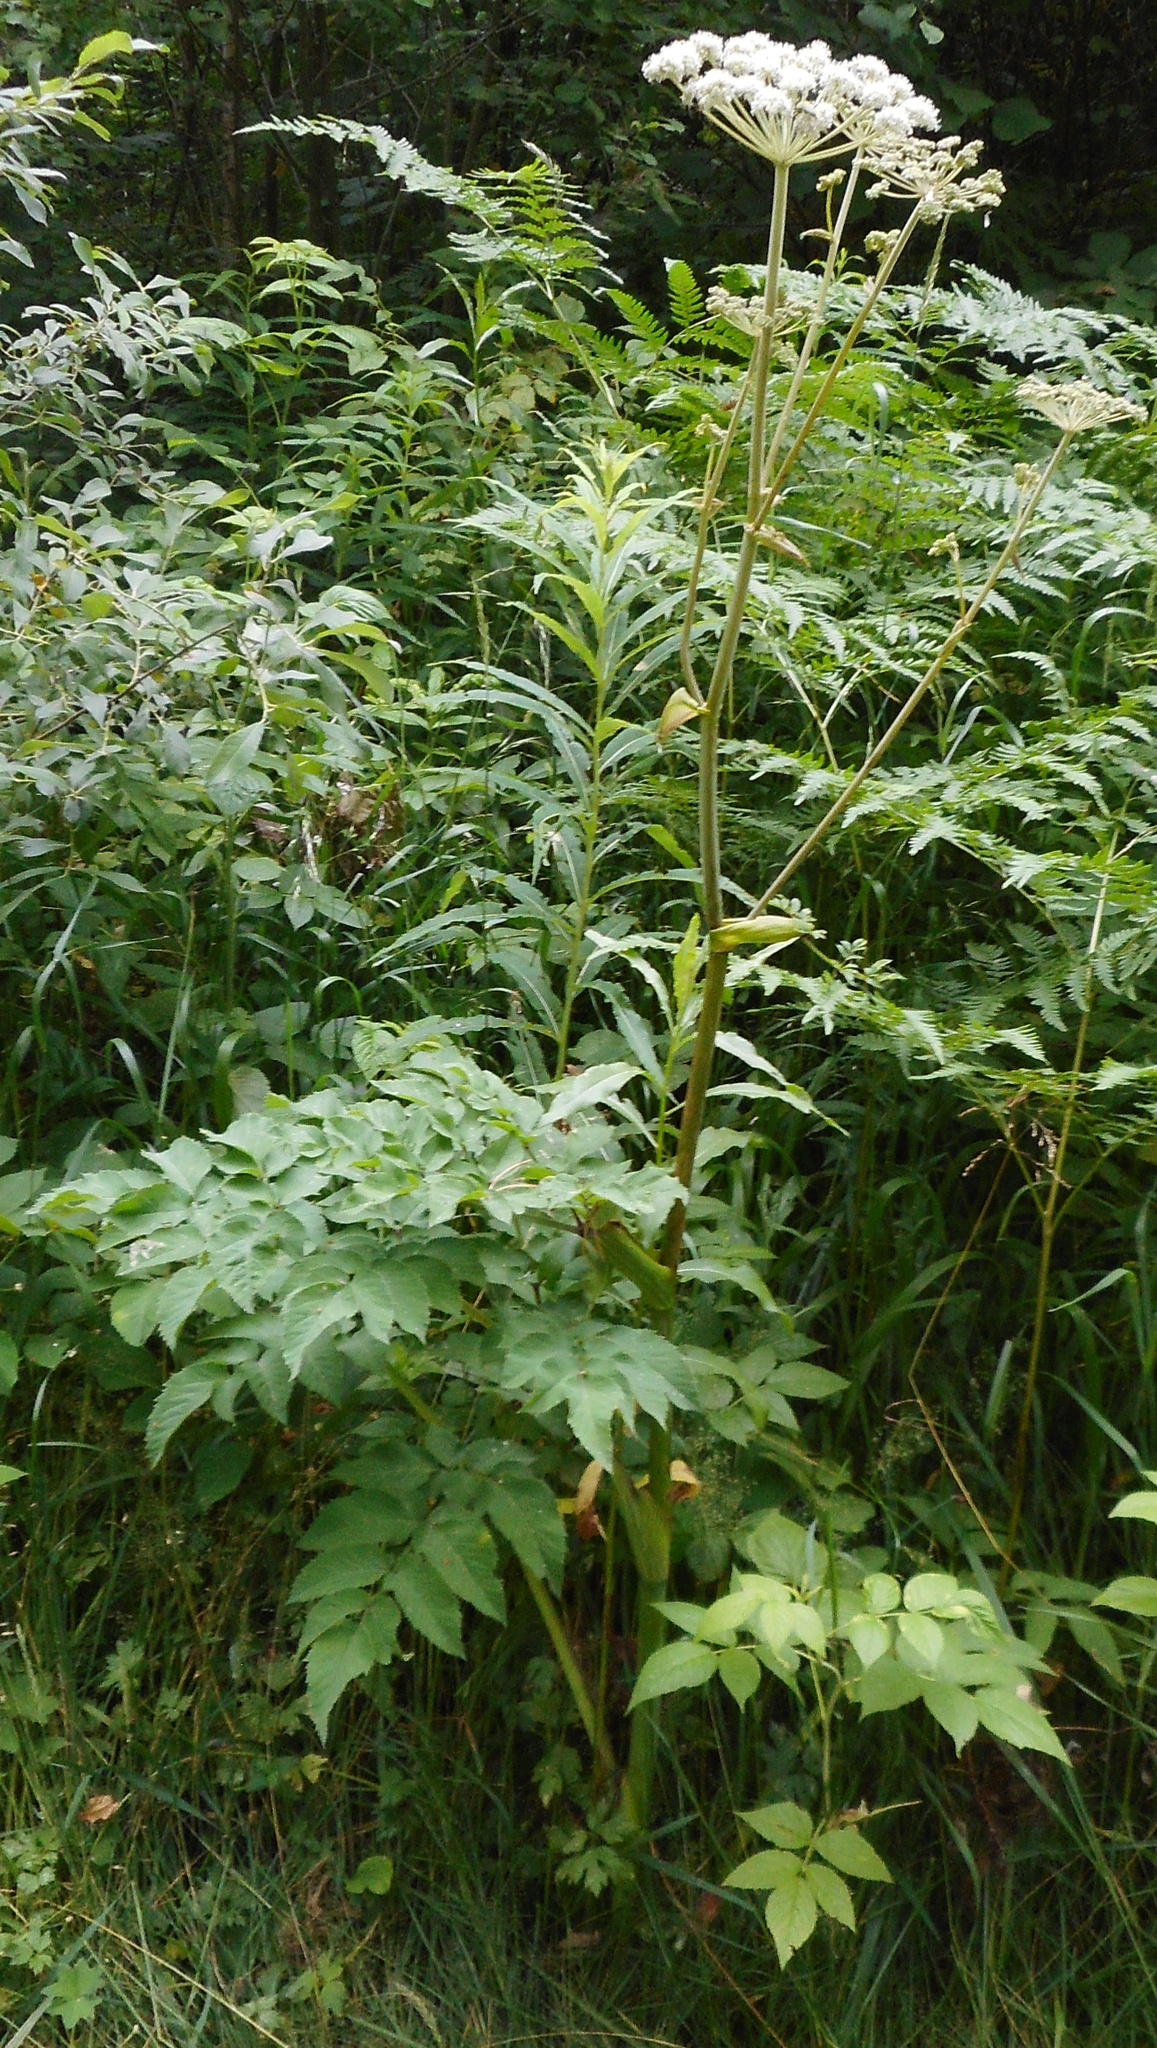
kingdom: Plantae
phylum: Tracheophyta
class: Magnoliopsida
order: Apiales
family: Apiaceae
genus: Angelica
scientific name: Angelica sylvestris
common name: Wild angelica
